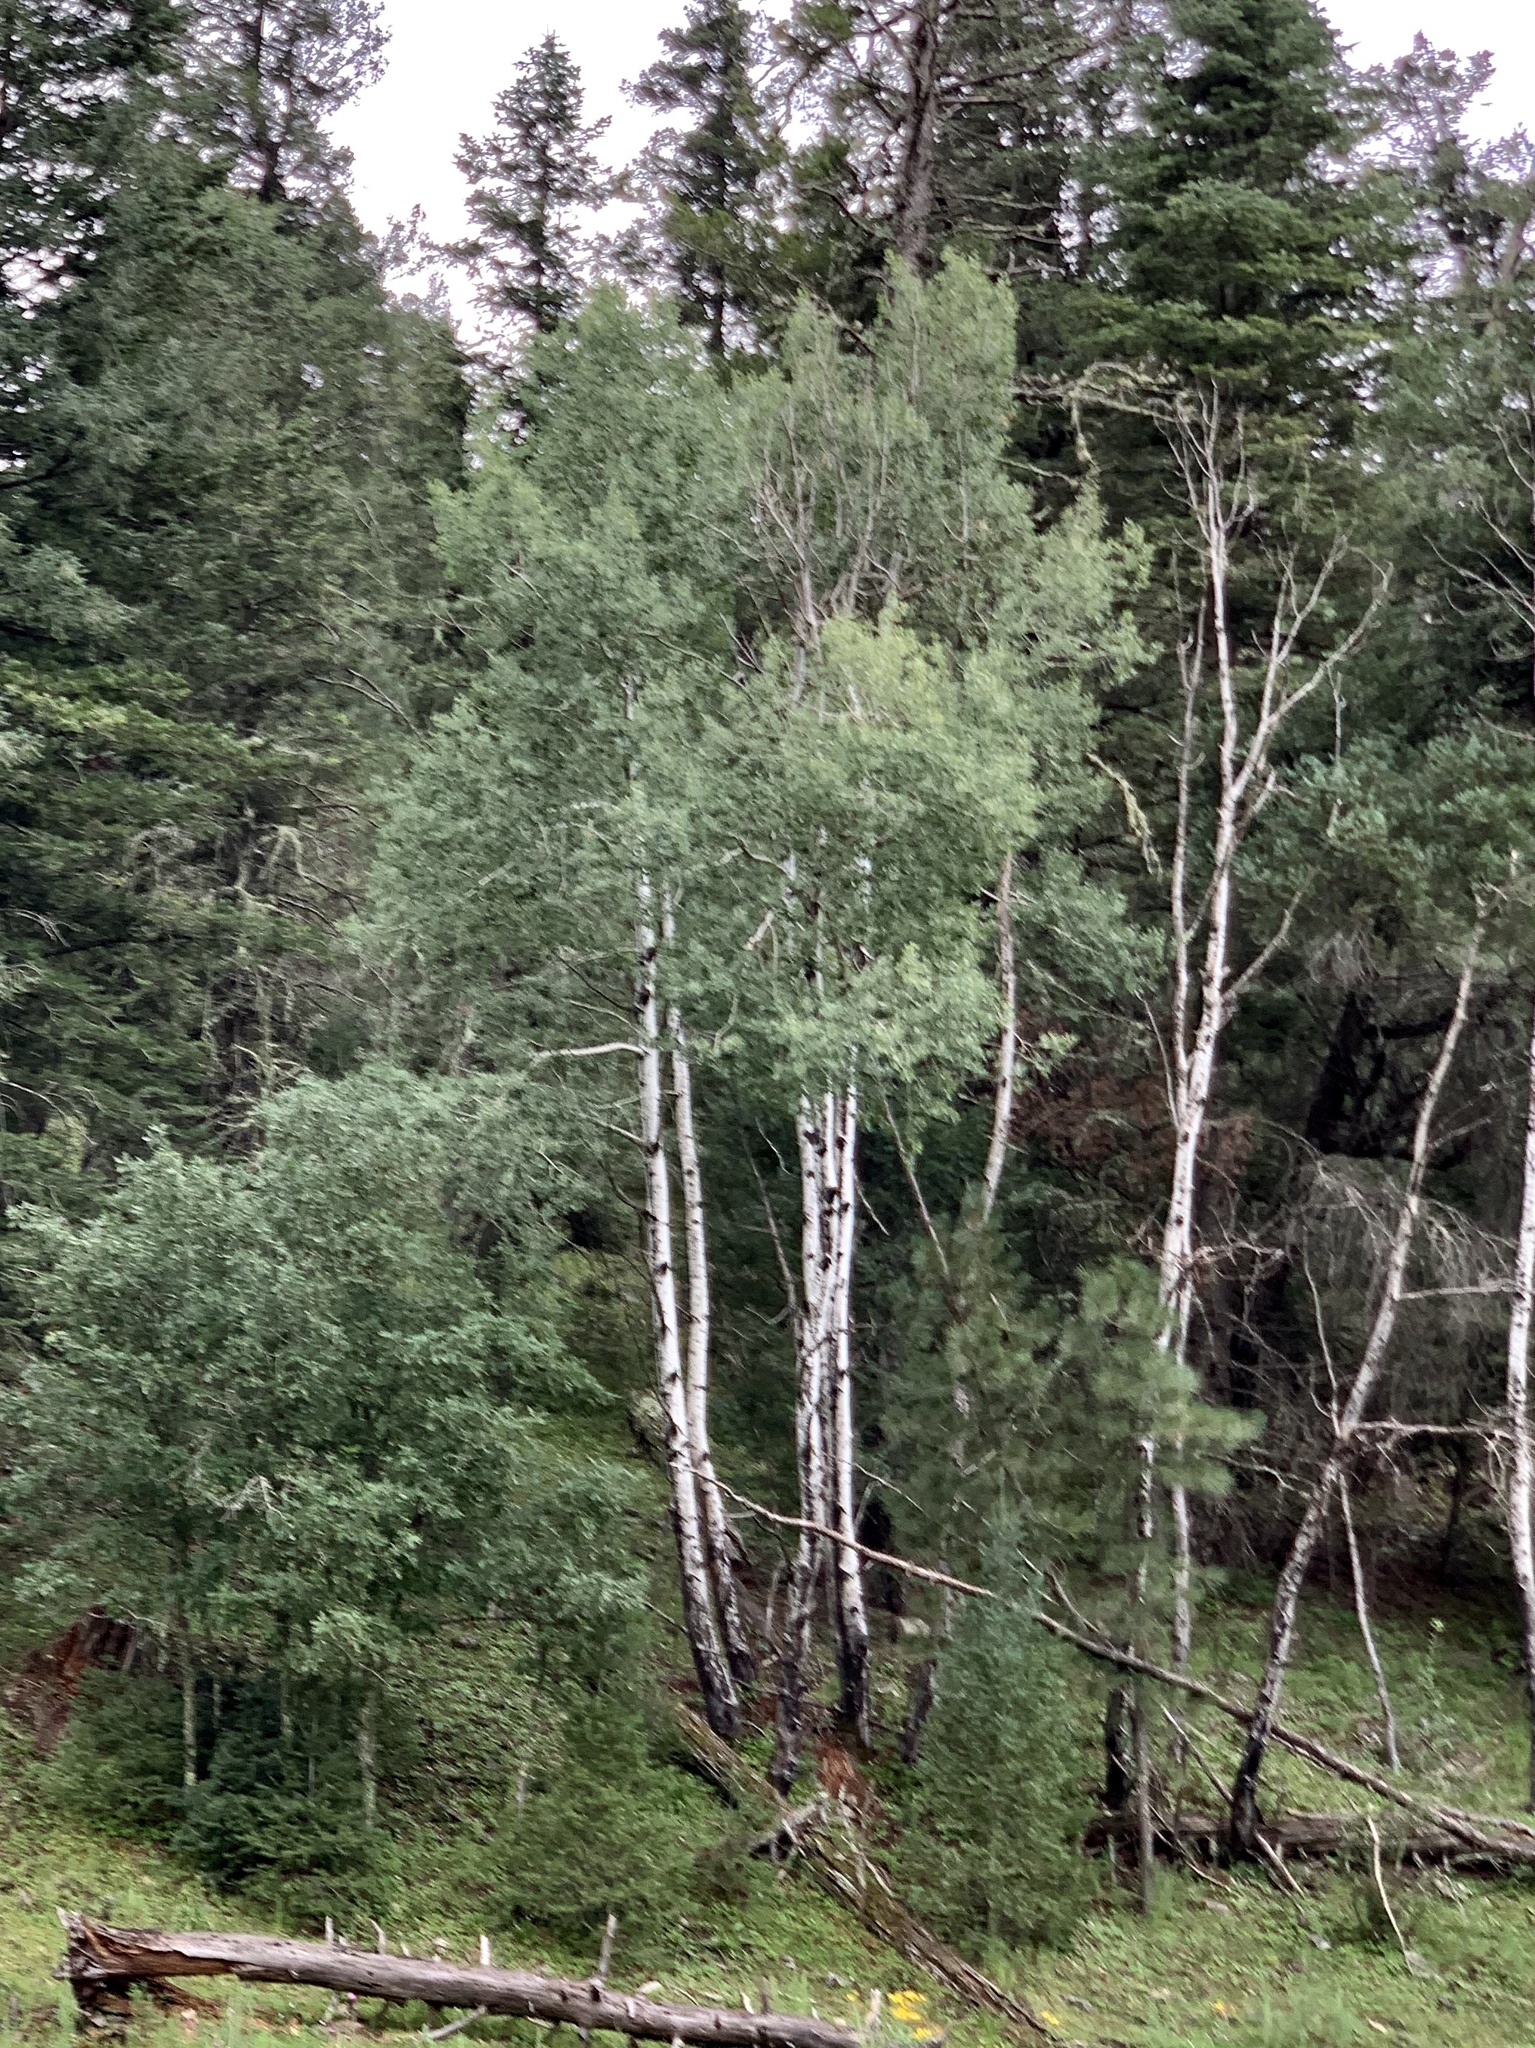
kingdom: Plantae
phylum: Tracheophyta
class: Magnoliopsida
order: Malpighiales
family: Salicaceae
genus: Populus
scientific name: Populus tremuloides
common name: Quaking aspen
